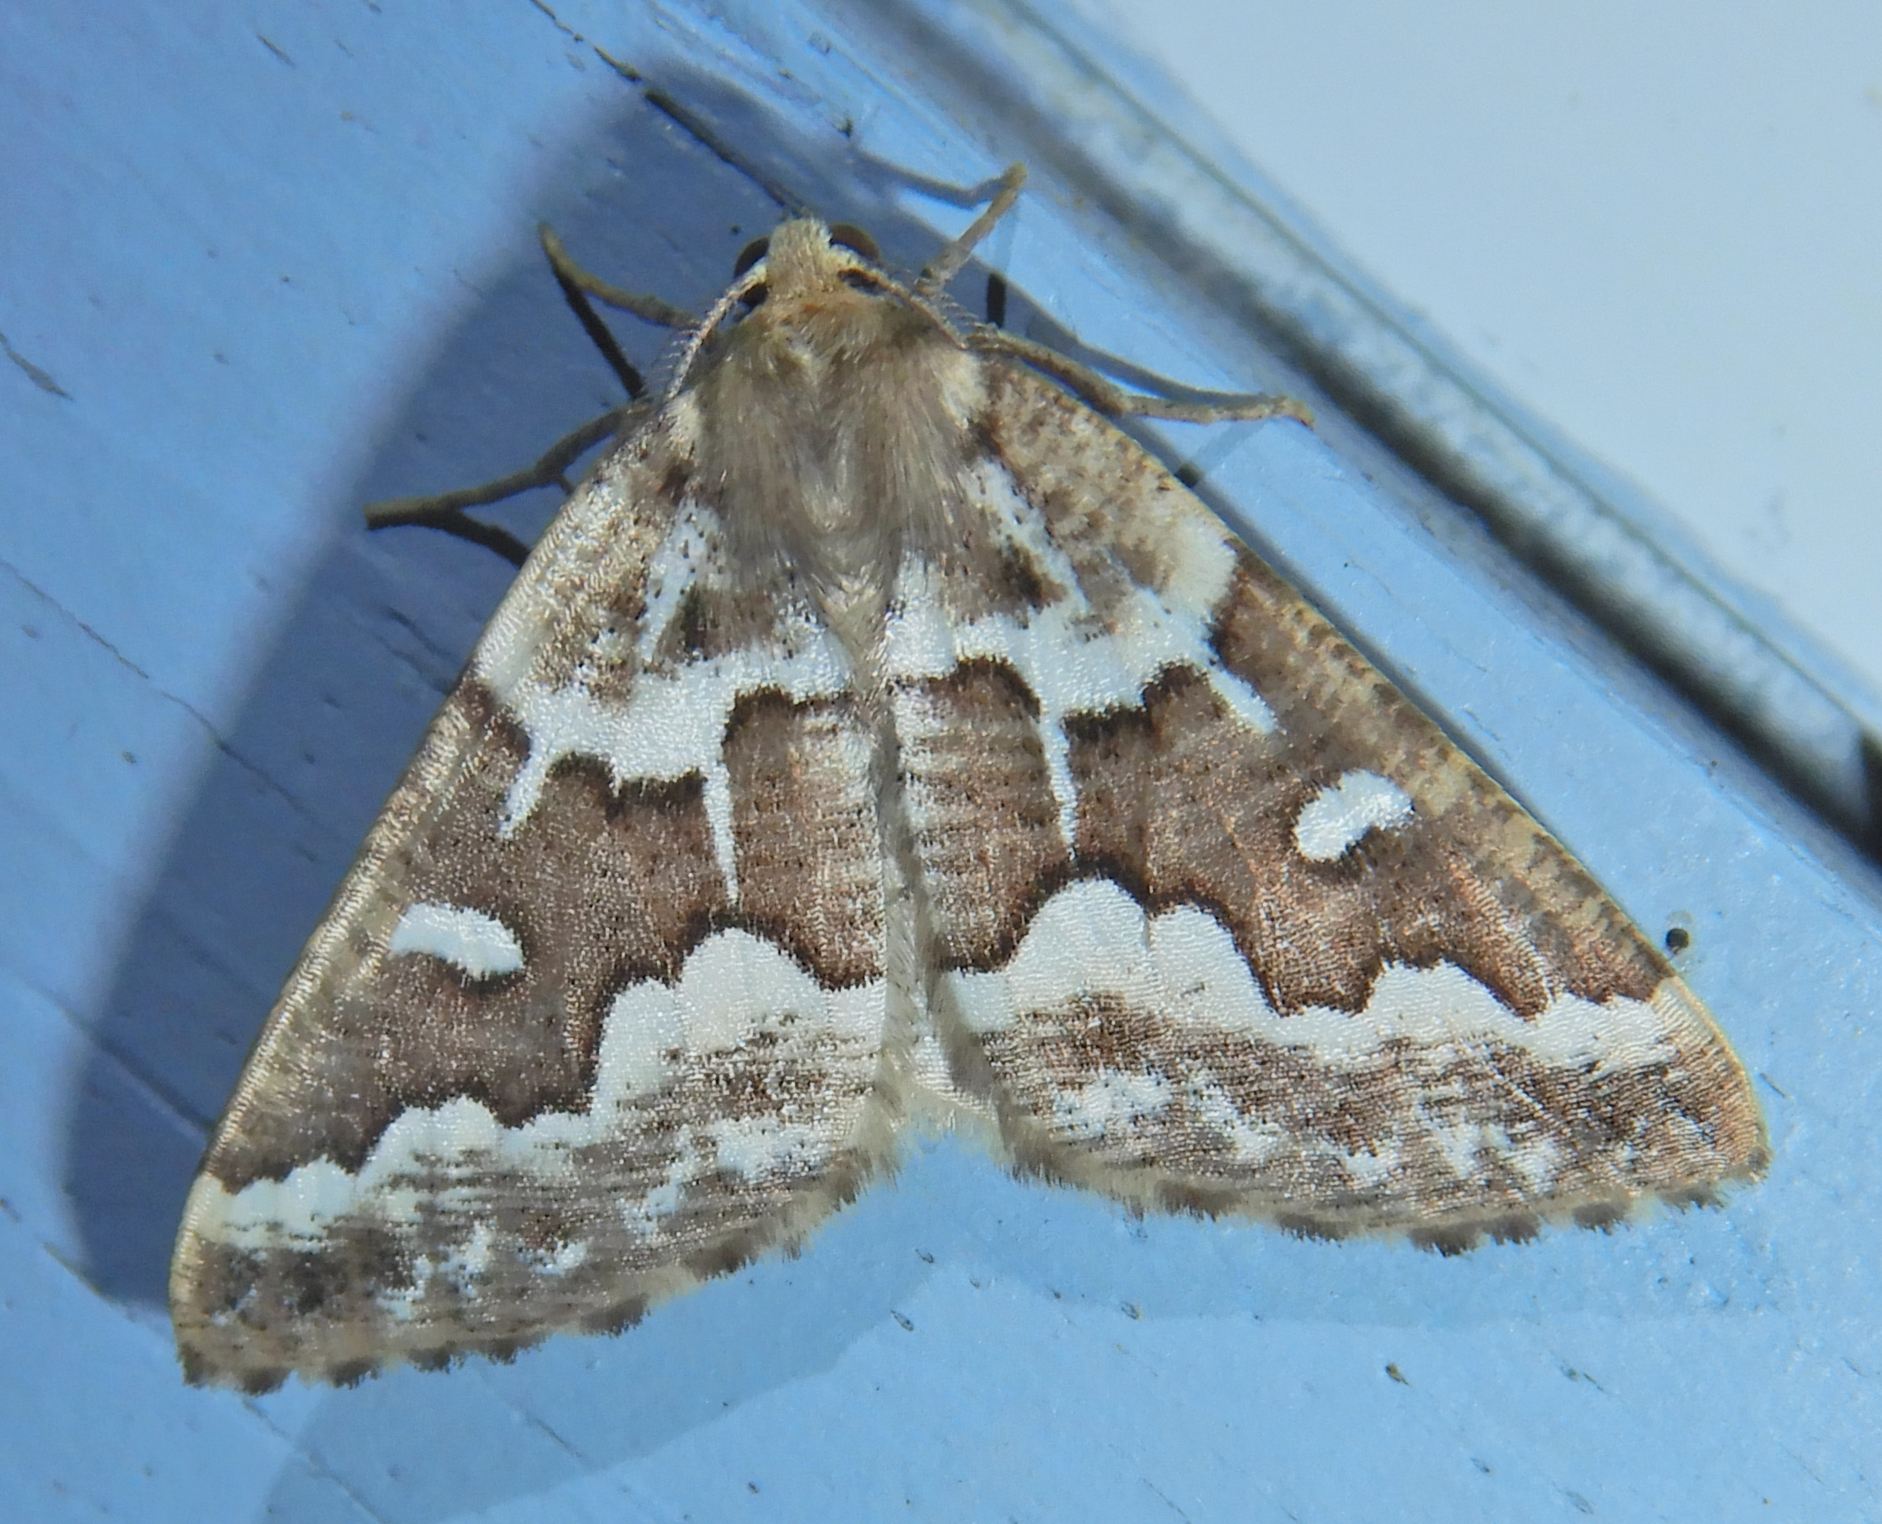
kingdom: Animalia
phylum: Arthropoda
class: Insecta
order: Lepidoptera
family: Geometridae
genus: Caripeta
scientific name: Caripeta divisata
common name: Gray spruce looper
